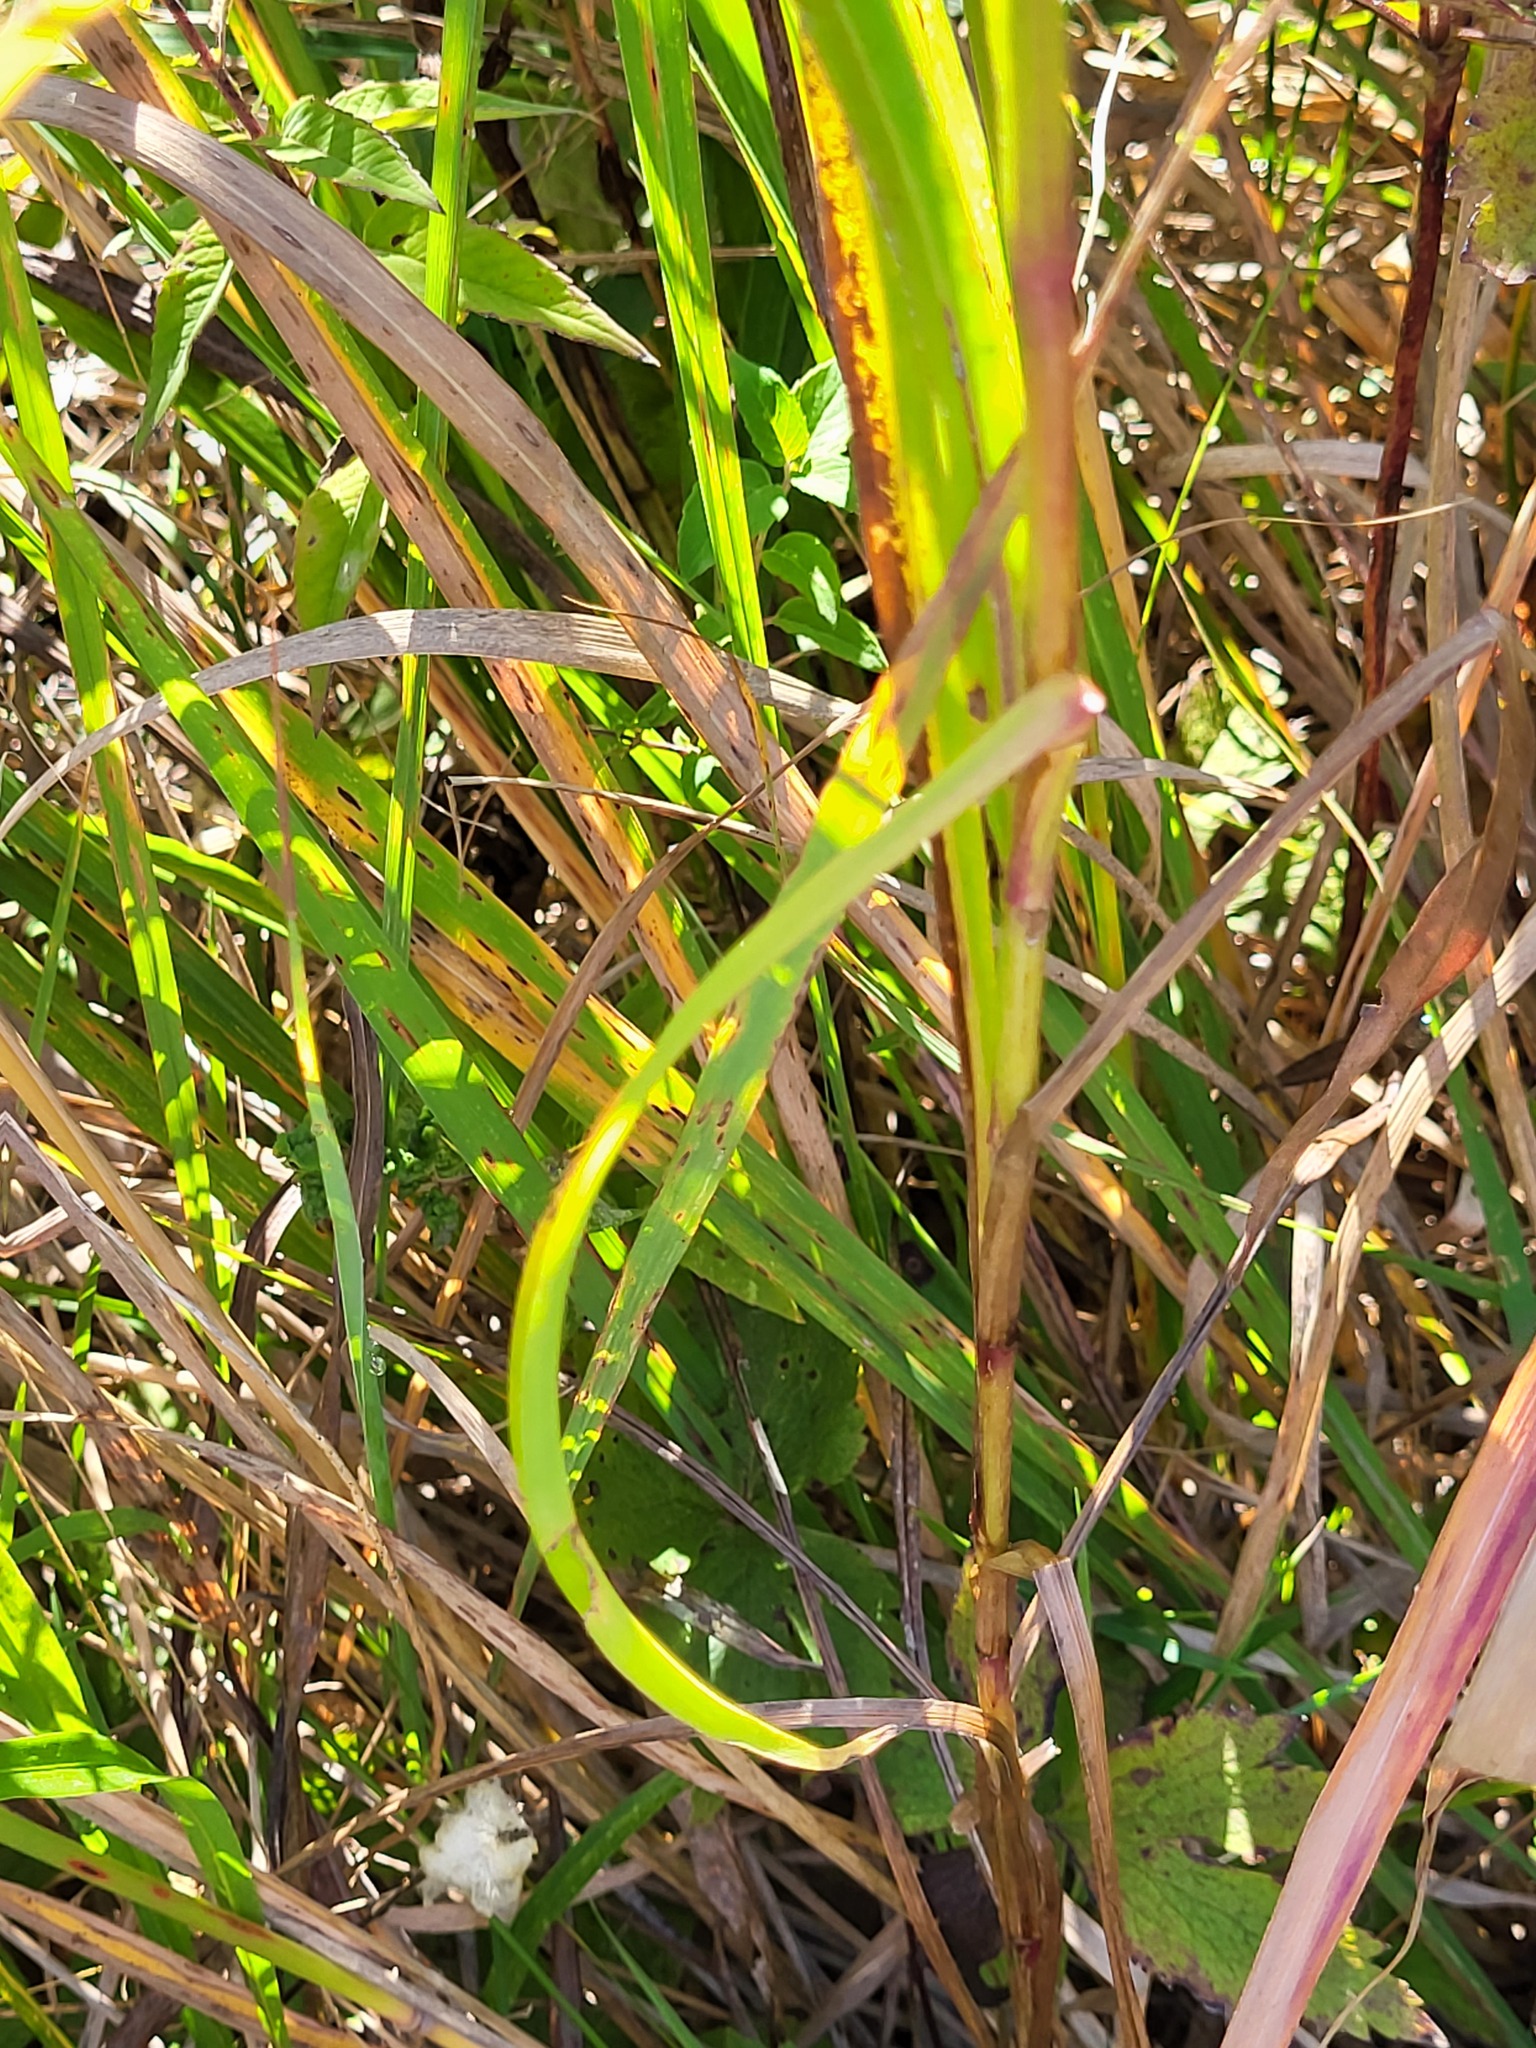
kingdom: Plantae
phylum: Tracheophyta
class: Magnoliopsida
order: Asterales
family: Asteraceae
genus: Solidago
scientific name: Solidago riddellii
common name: Riddell's goldenrod
